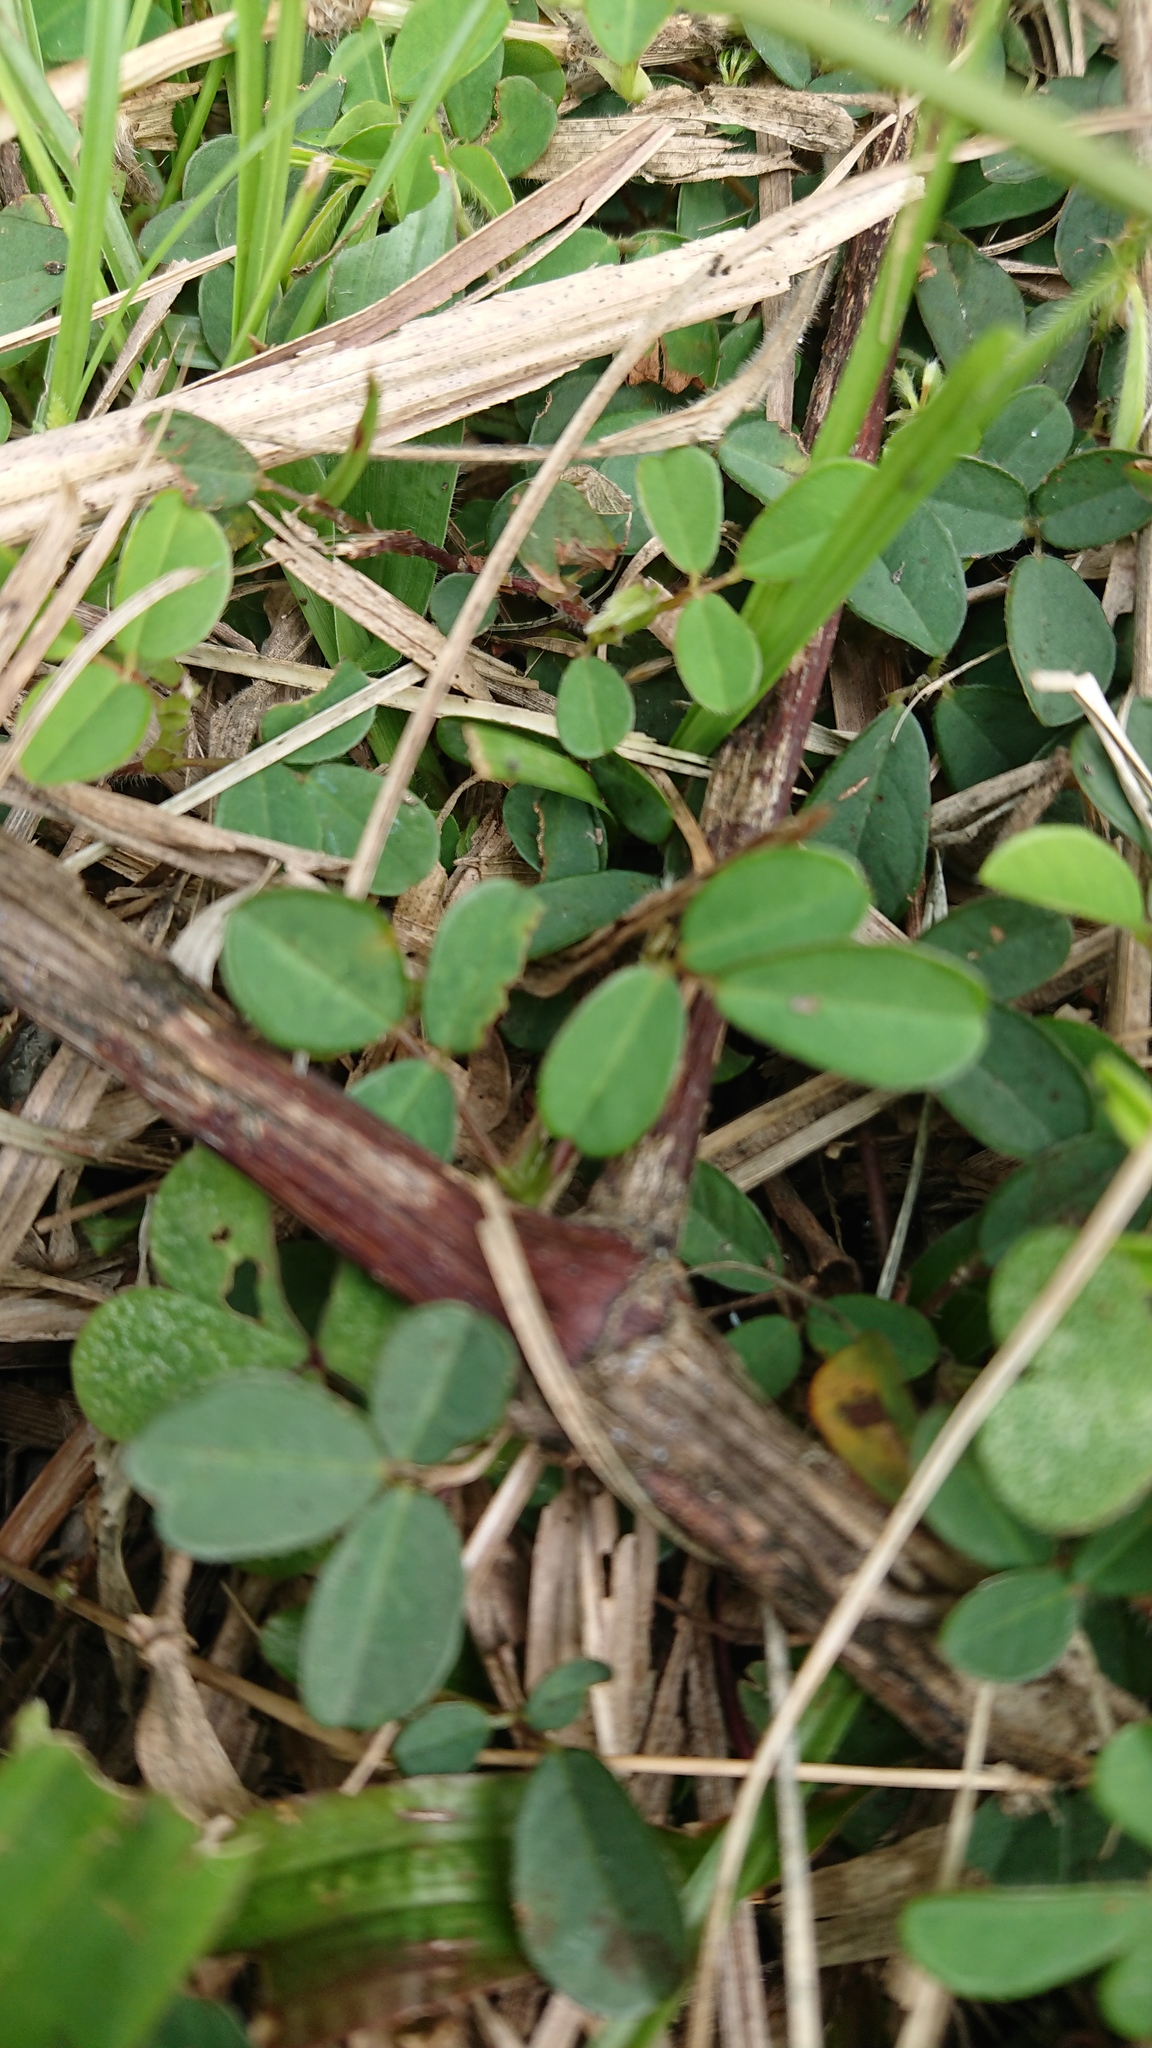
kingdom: Plantae
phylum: Tracheophyta
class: Magnoliopsida
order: Fabales
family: Fabaceae
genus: Grona
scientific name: Grona heterophylla
